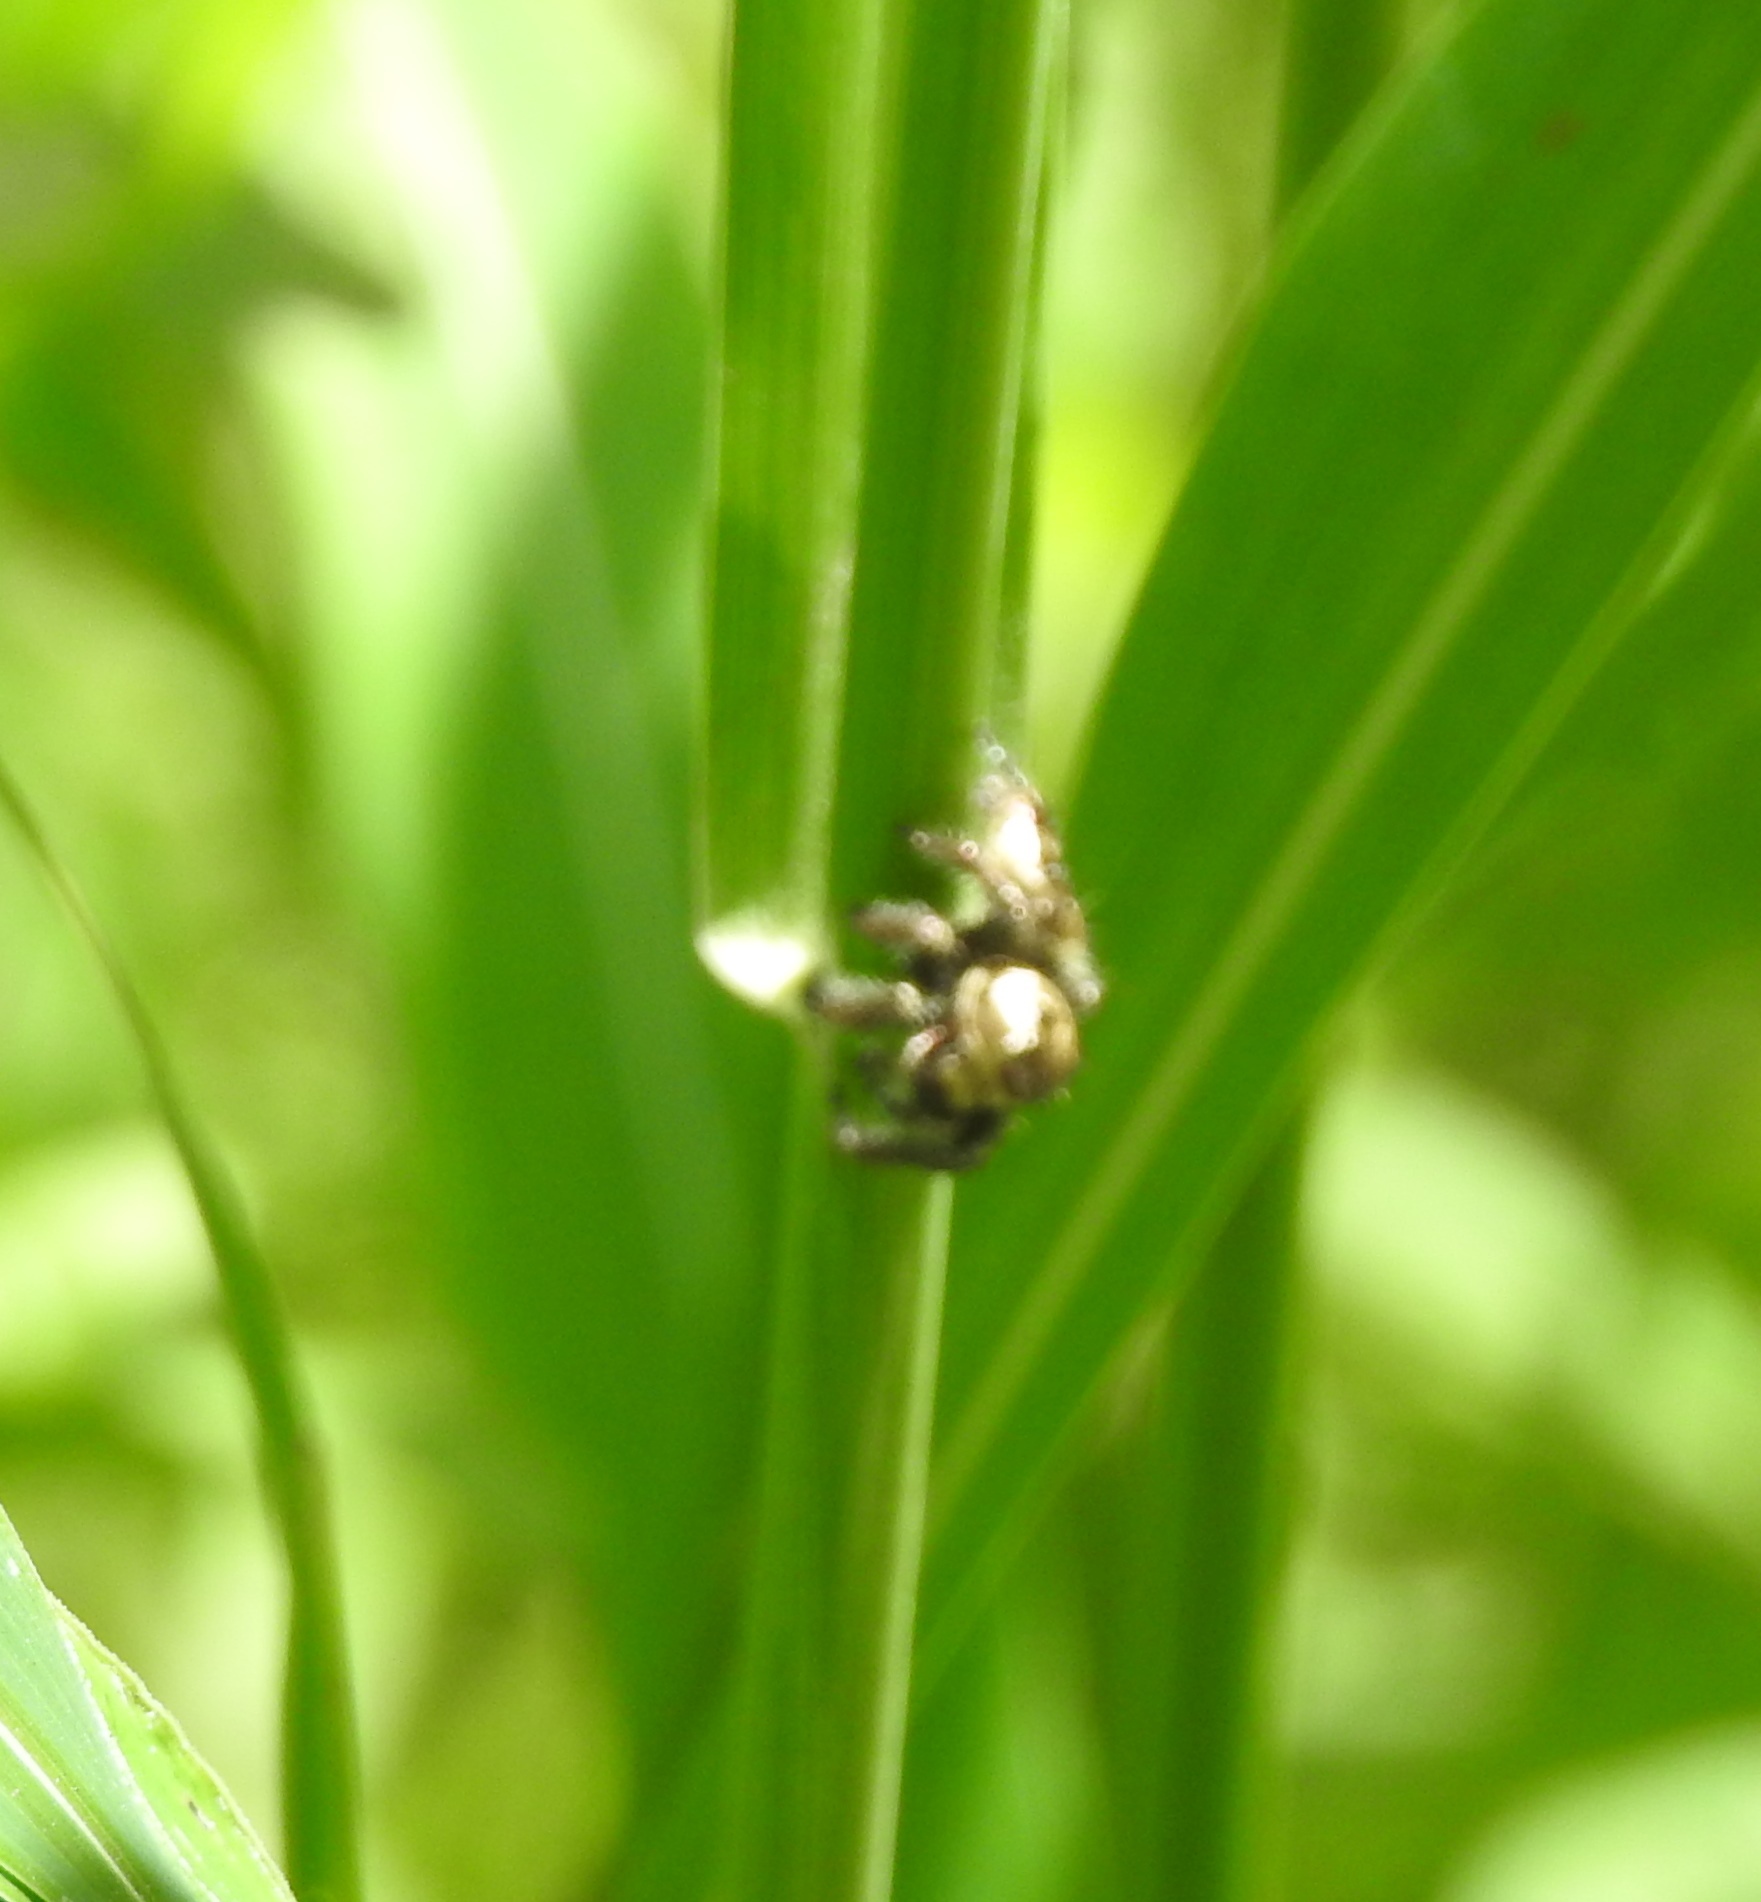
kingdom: Animalia
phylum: Arthropoda
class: Arachnida
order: Araneae
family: Salticidae
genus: Hyllus
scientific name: Hyllus semicupreus
